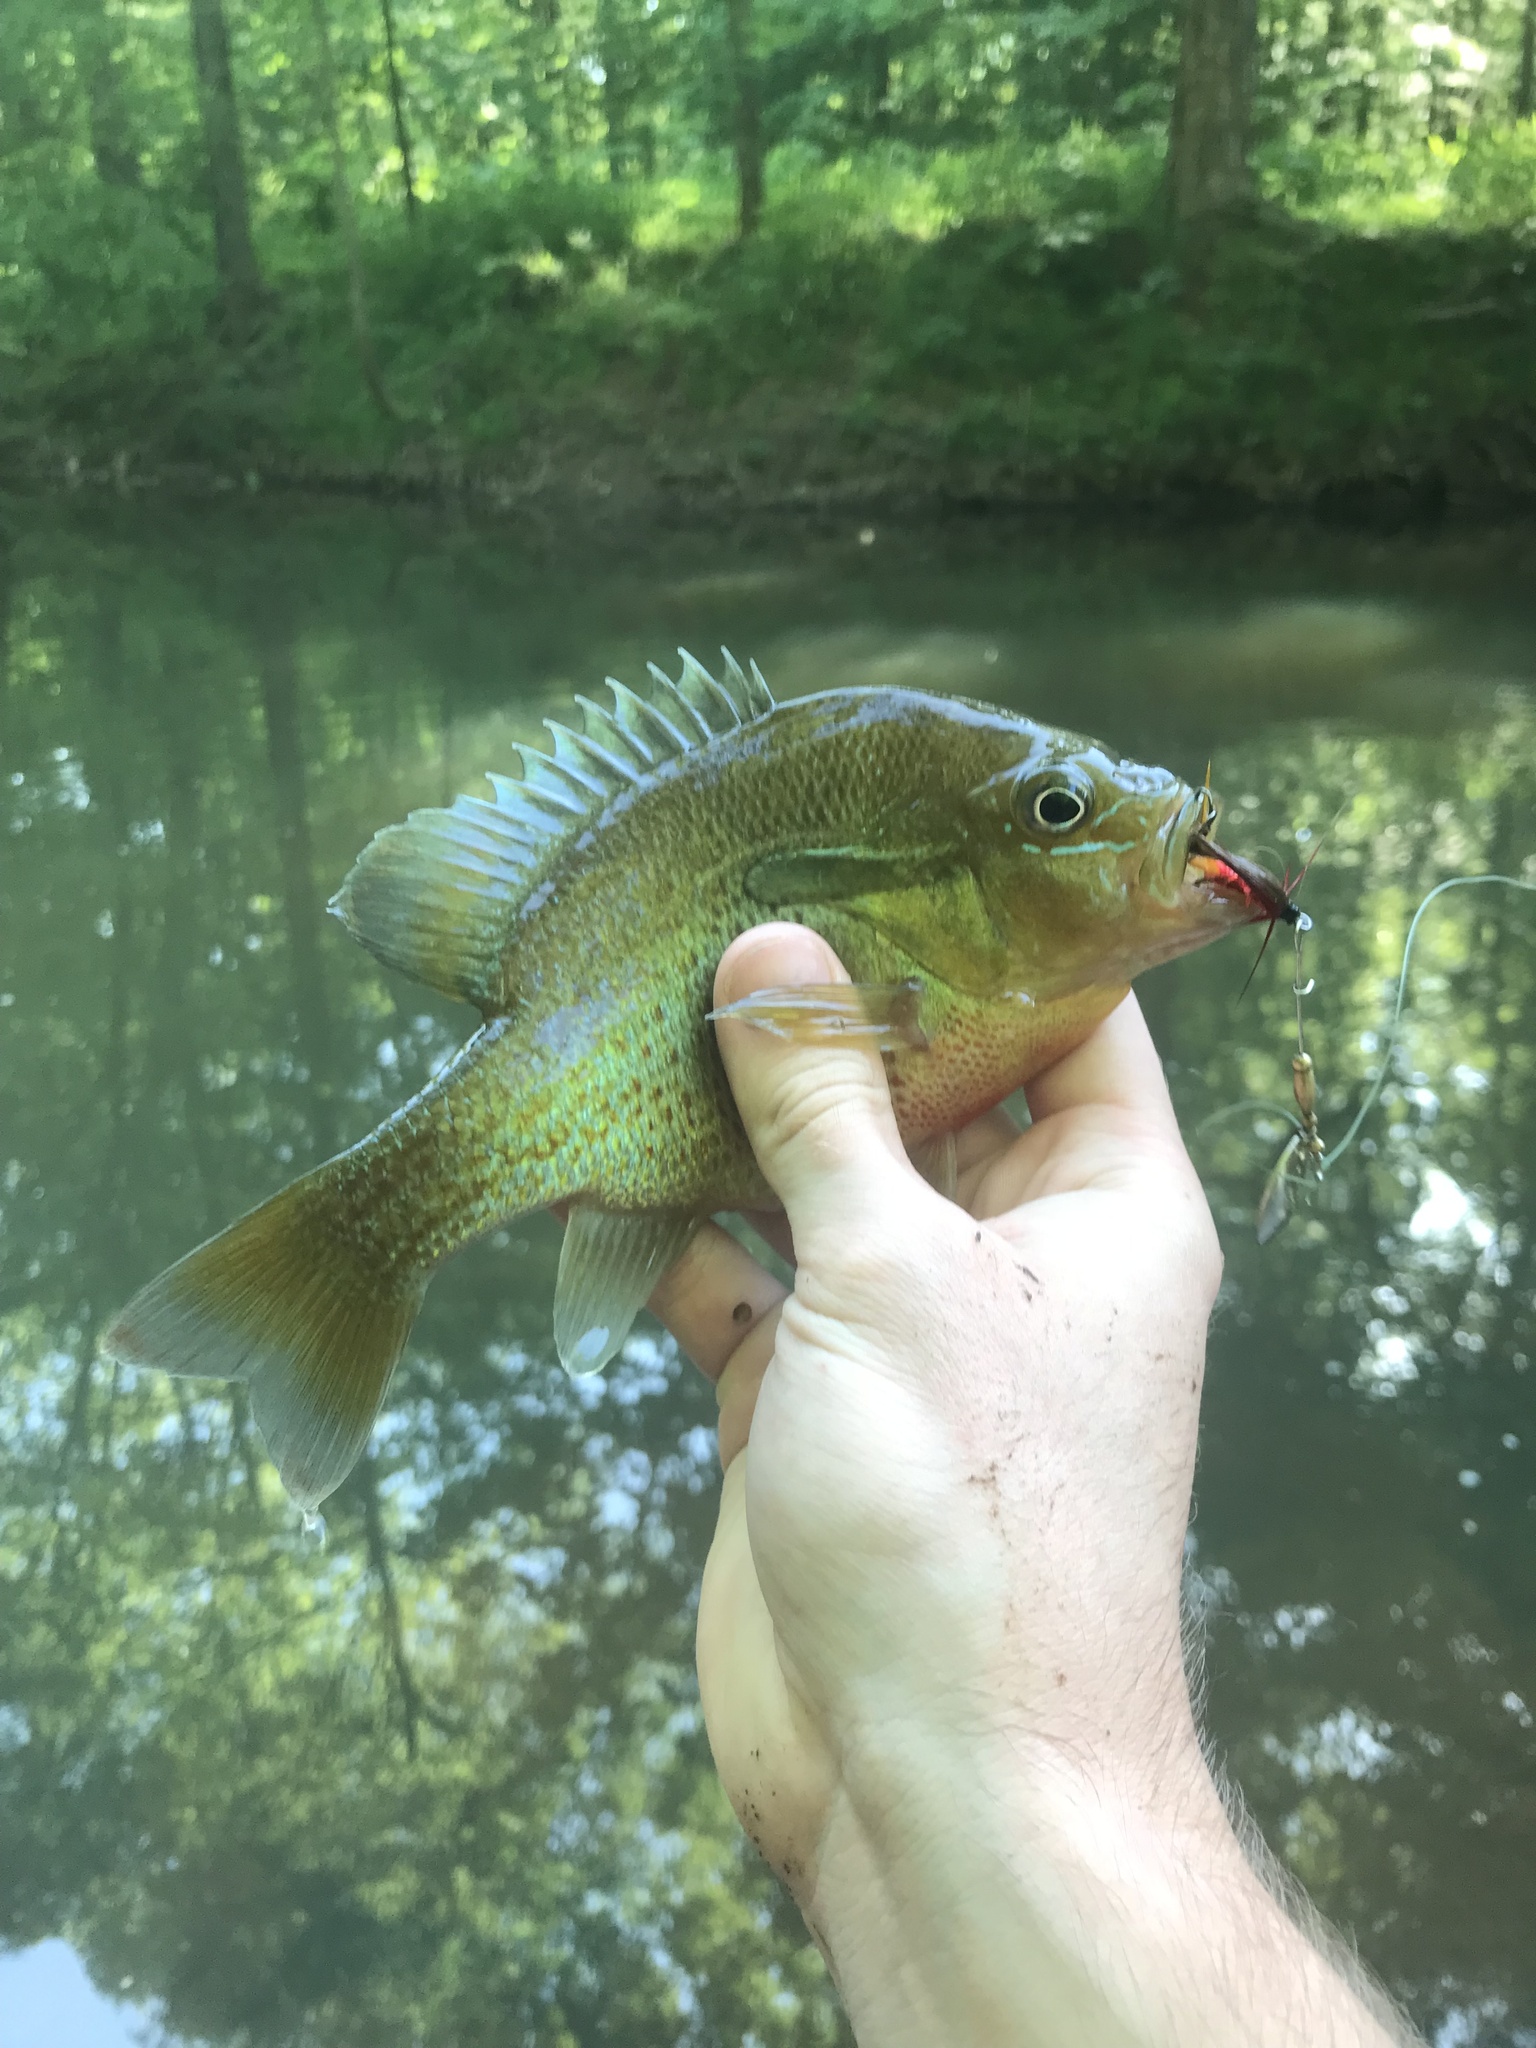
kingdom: Animalia
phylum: Chordata
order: Perciformes
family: Centrarchidae
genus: Lepomis
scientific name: Lepomis auritus
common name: Redbreast sunfish
